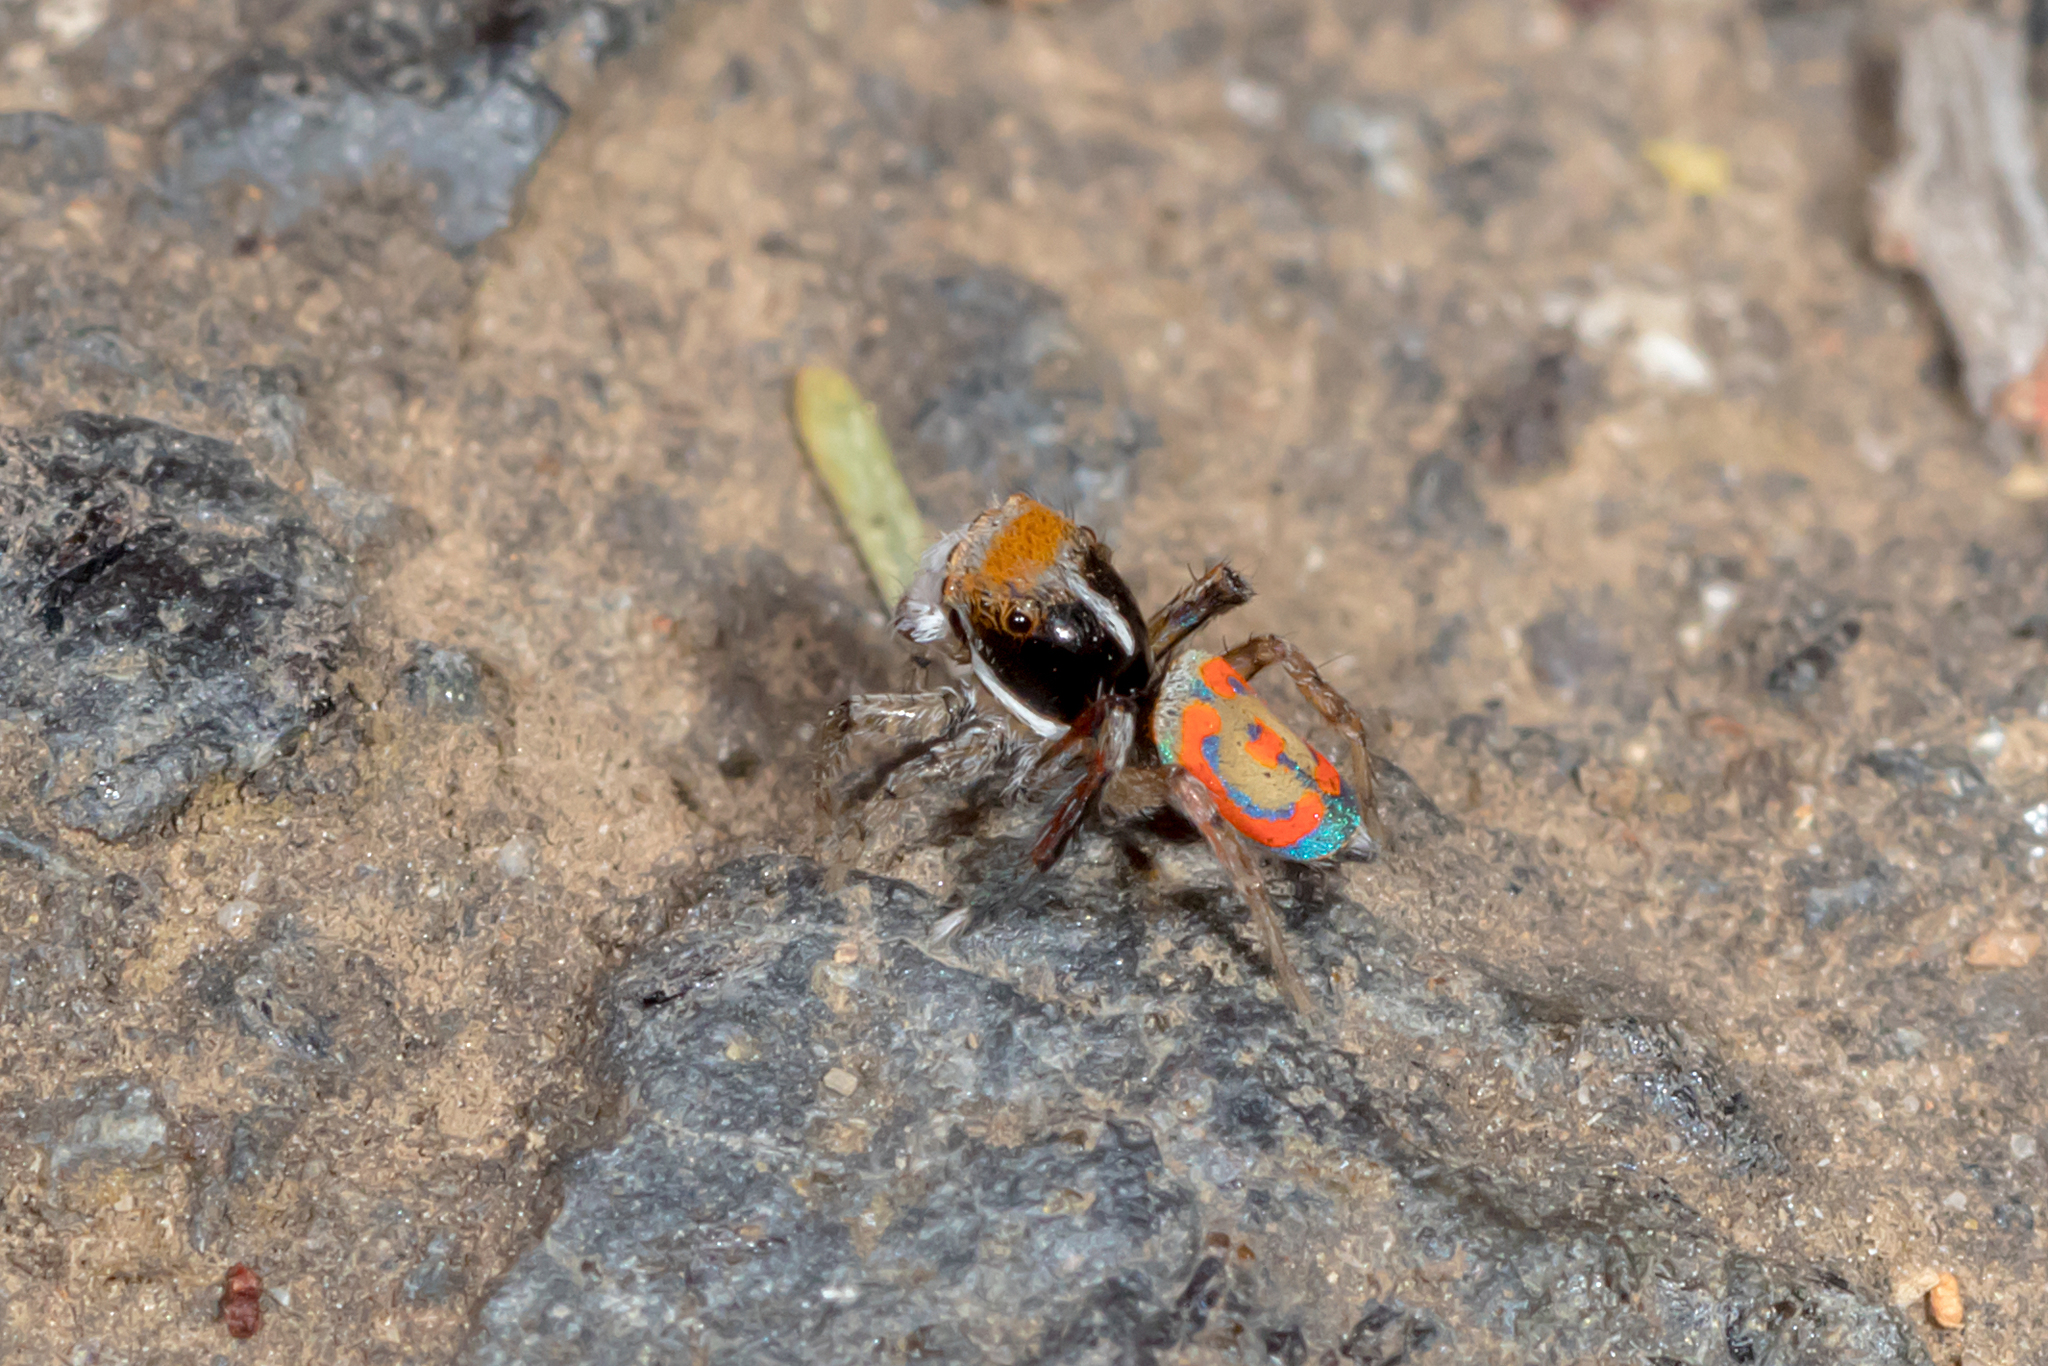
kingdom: Animalia
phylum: Arthropoda
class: Arachnida
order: Araneae
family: Salticidae
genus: Maratus
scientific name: Maratus pavonis
